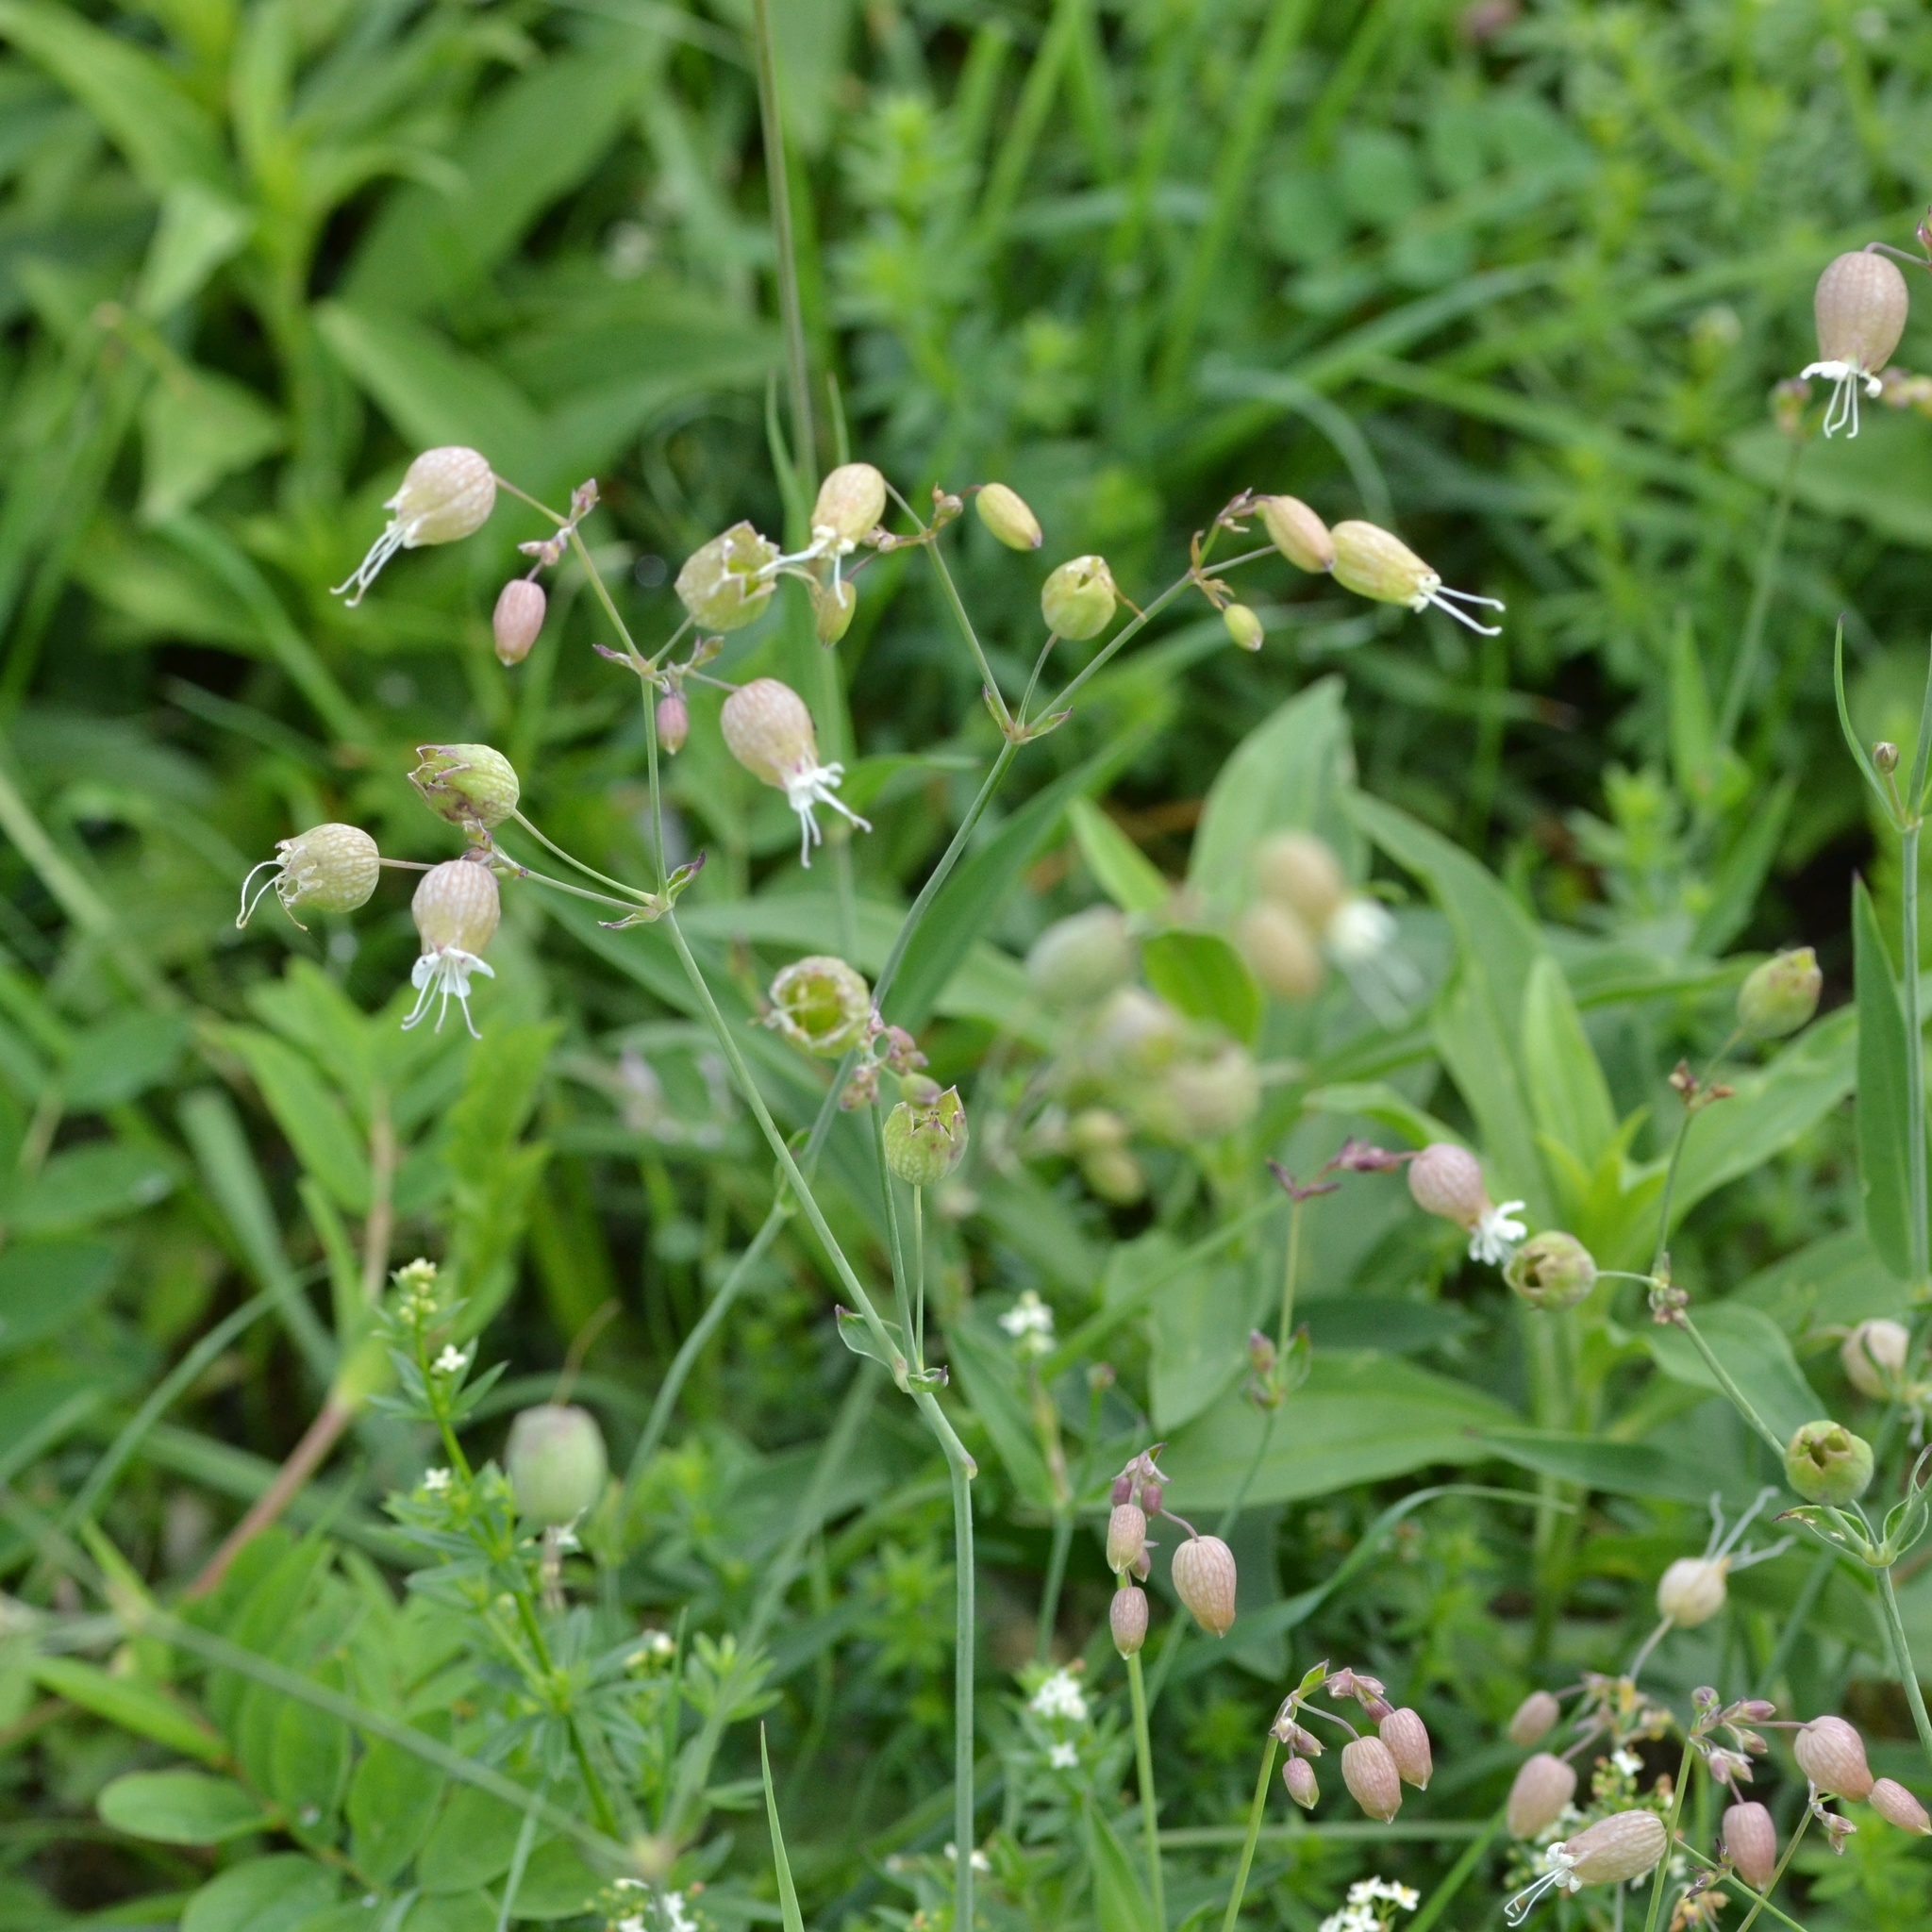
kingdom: Plantae
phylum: Tracheophyta
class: Magnoliopsida
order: Caryophyllales
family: Caryophyllaceae
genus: Silene
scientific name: Silene vulgaris
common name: Bladder campion
